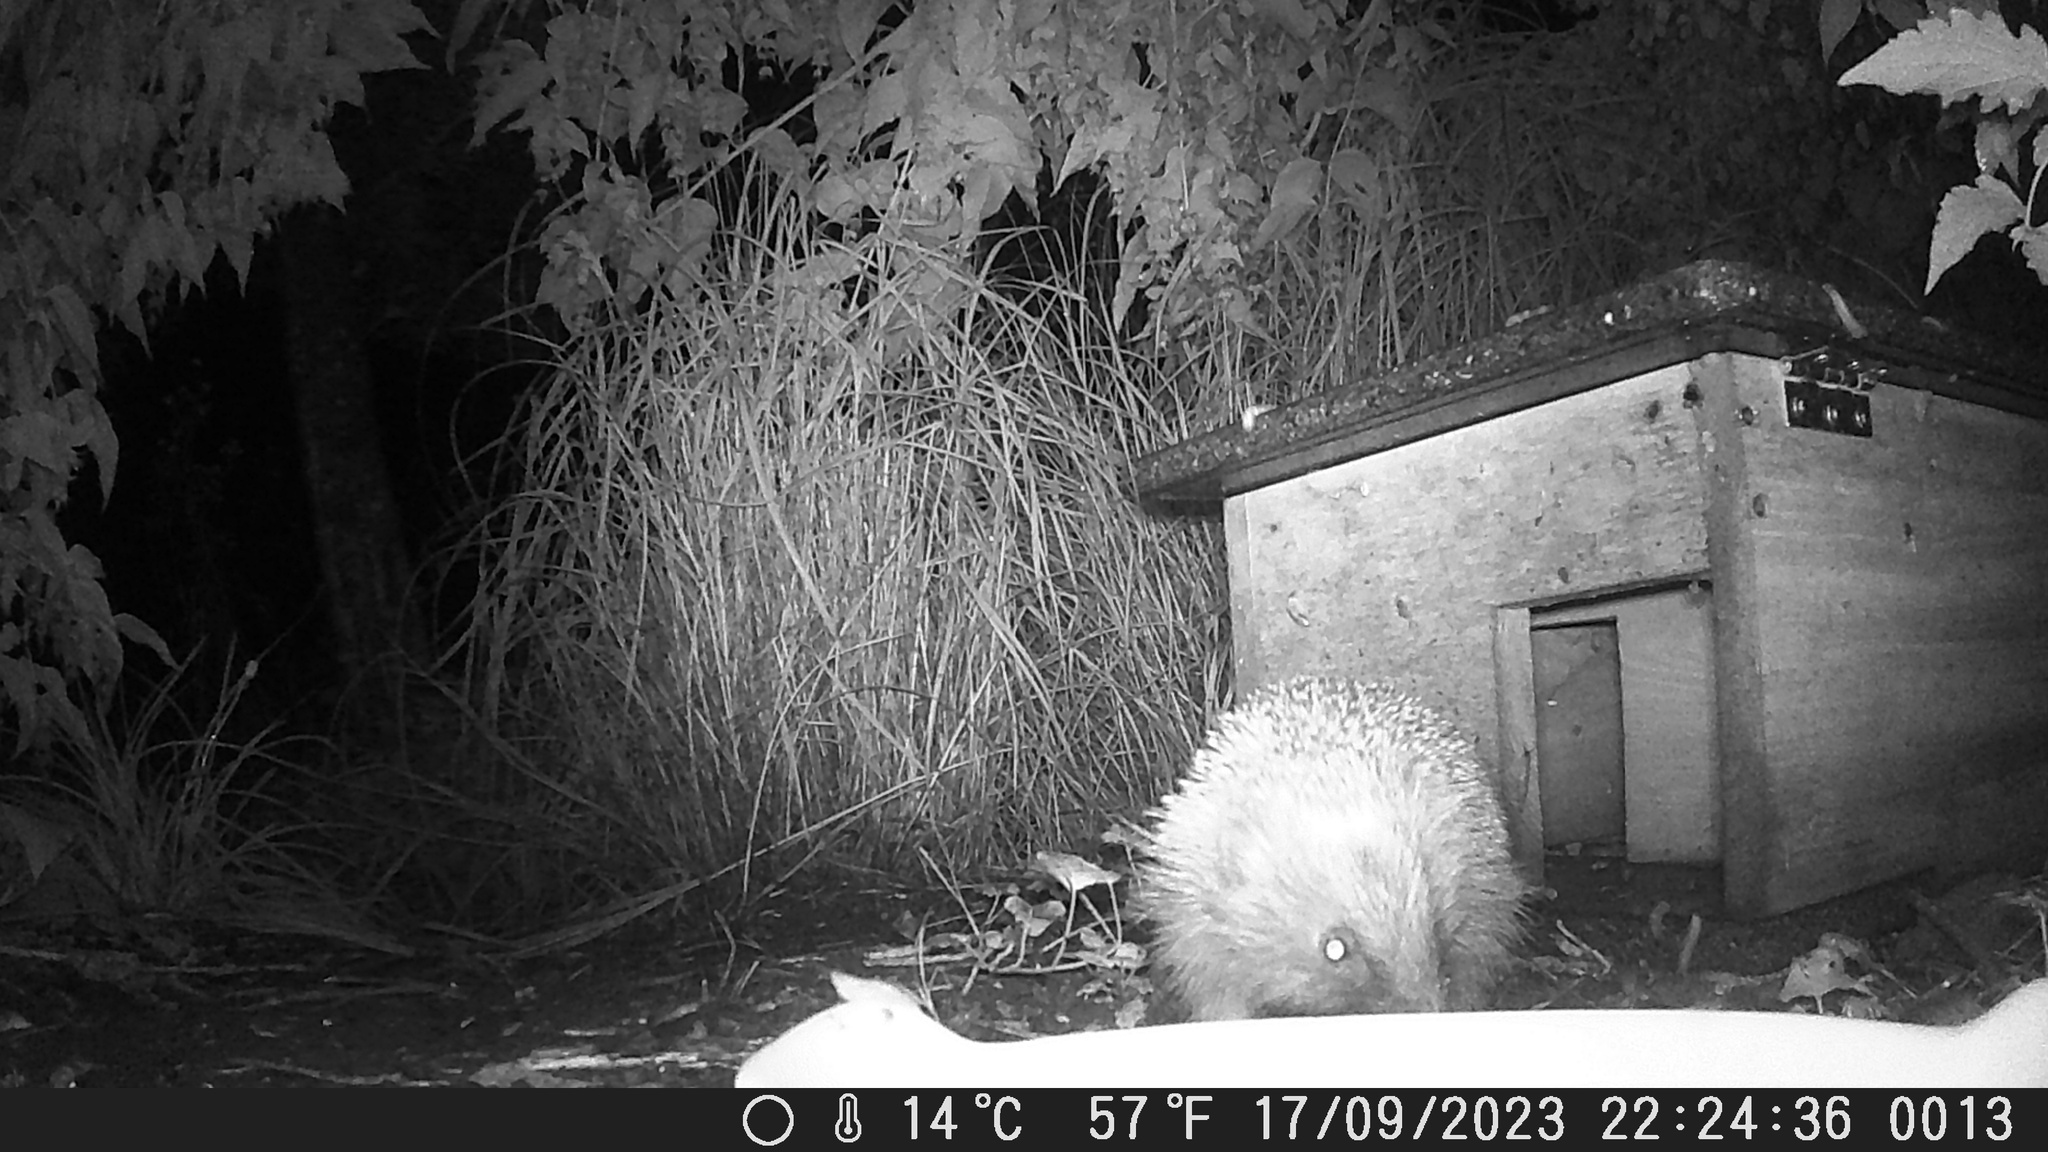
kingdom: Animalia
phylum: Chordata
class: Mammalia
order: Erinaceomorpha
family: Erinaceidae
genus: Erinaceus
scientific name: Erinaceus europaeus
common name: West european hedgehog
